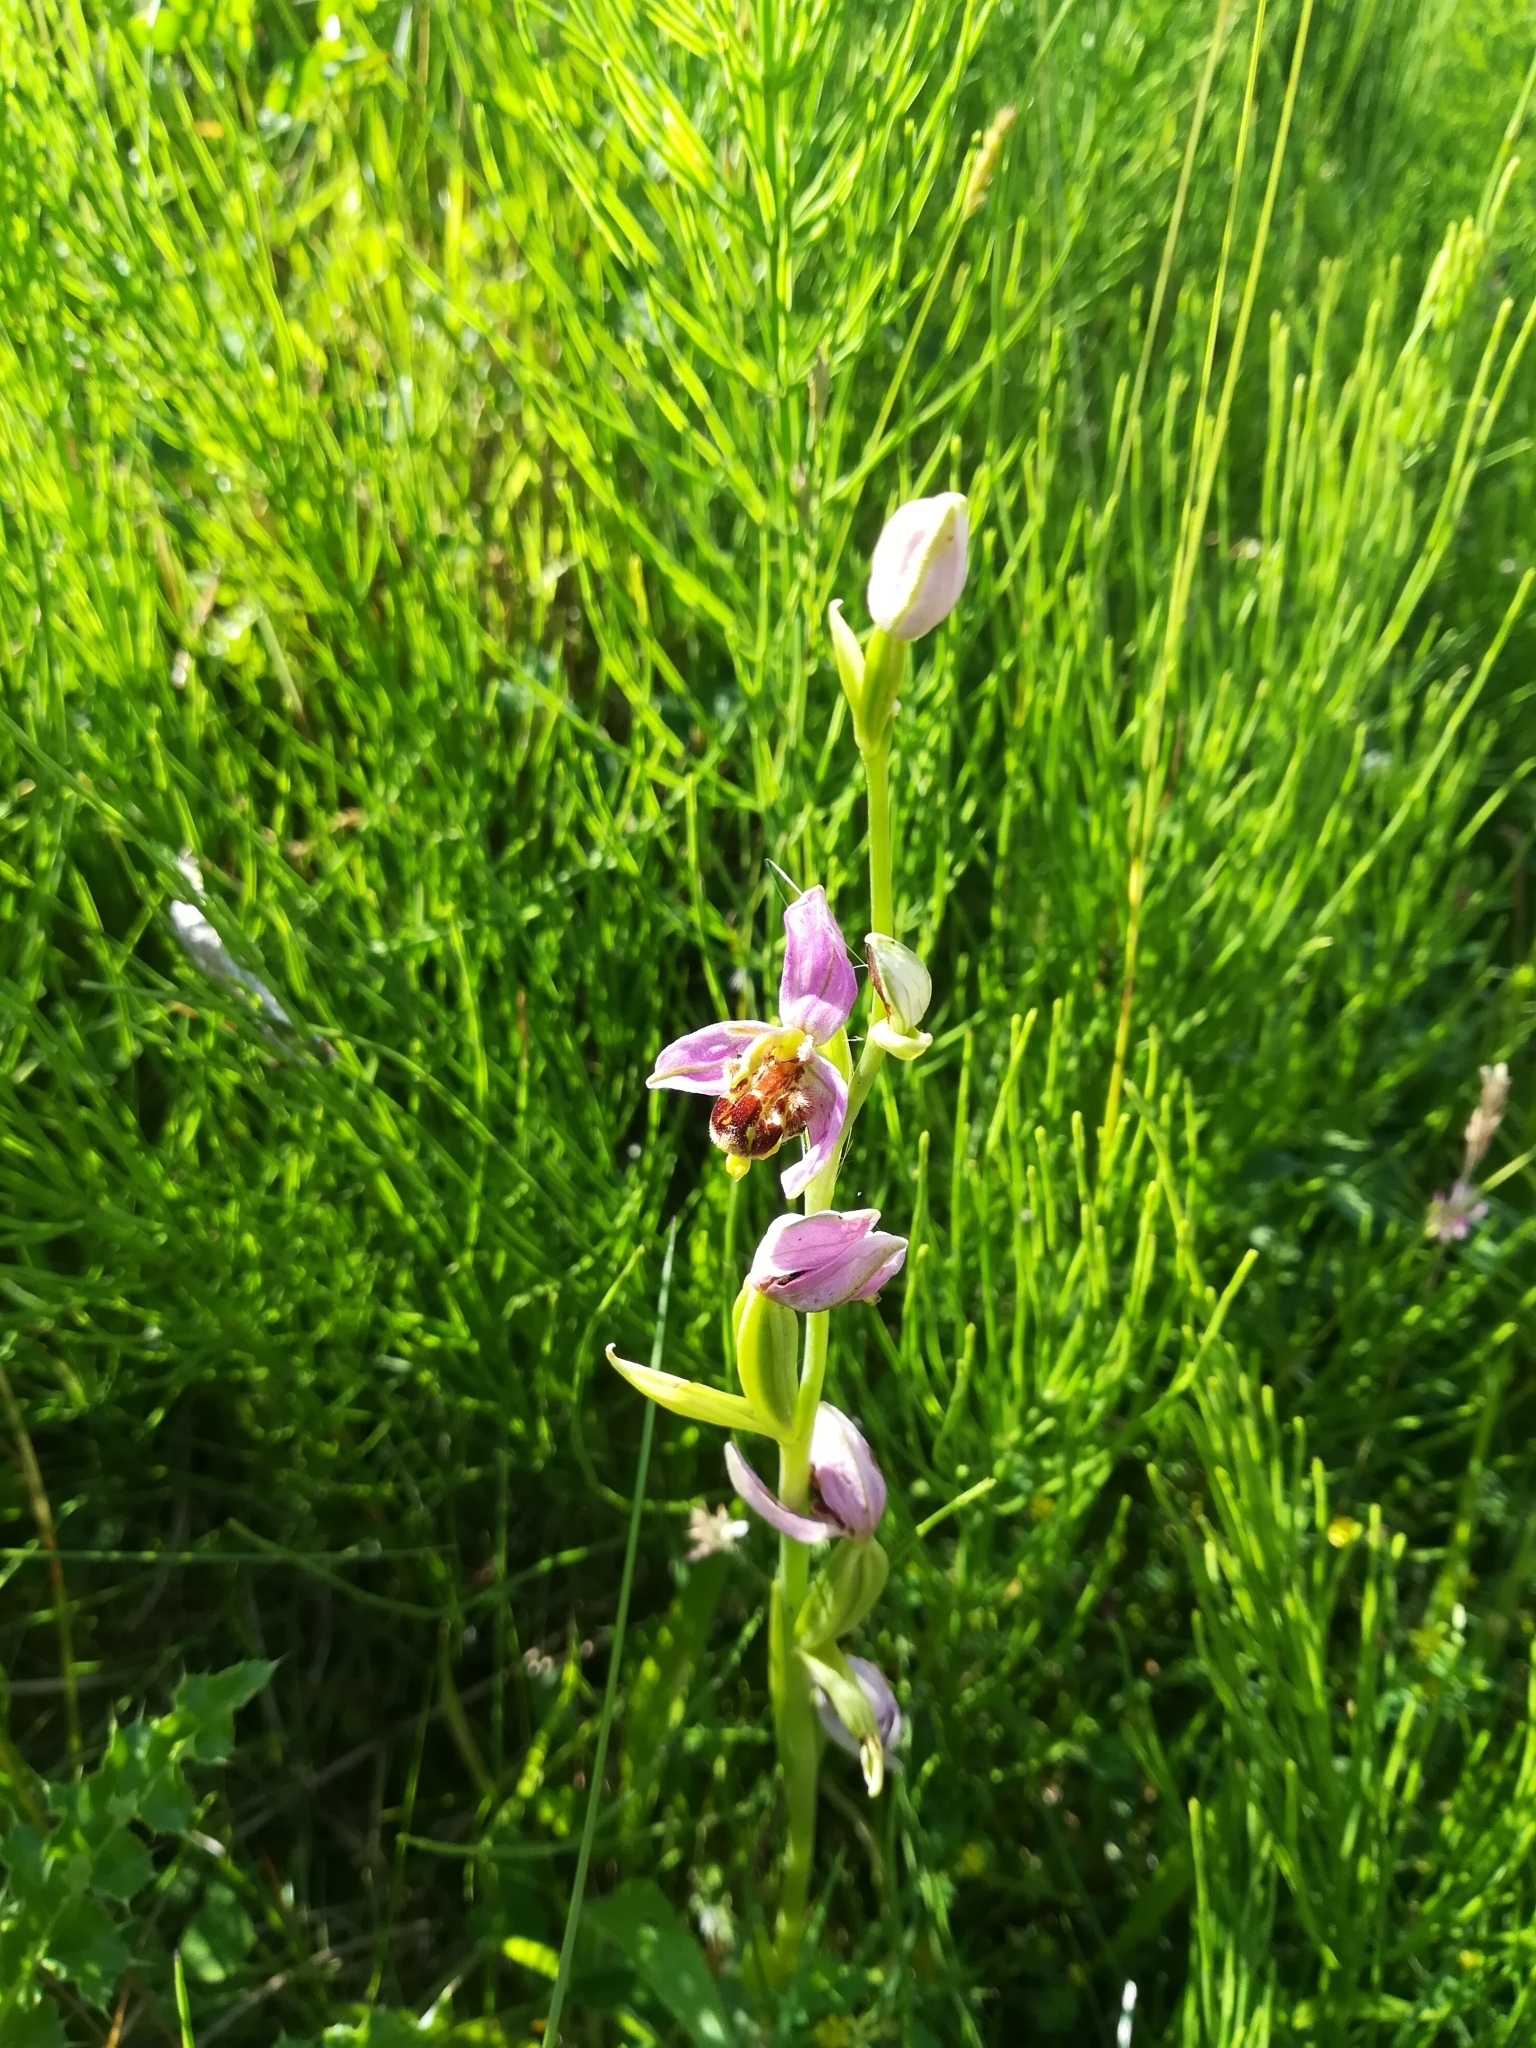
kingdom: Plantae
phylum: Tracheophyta
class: Liliopsida
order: Asparagales
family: Orchidaceae
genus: Ophrys
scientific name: Ophrys apifera
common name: Bee orchid
